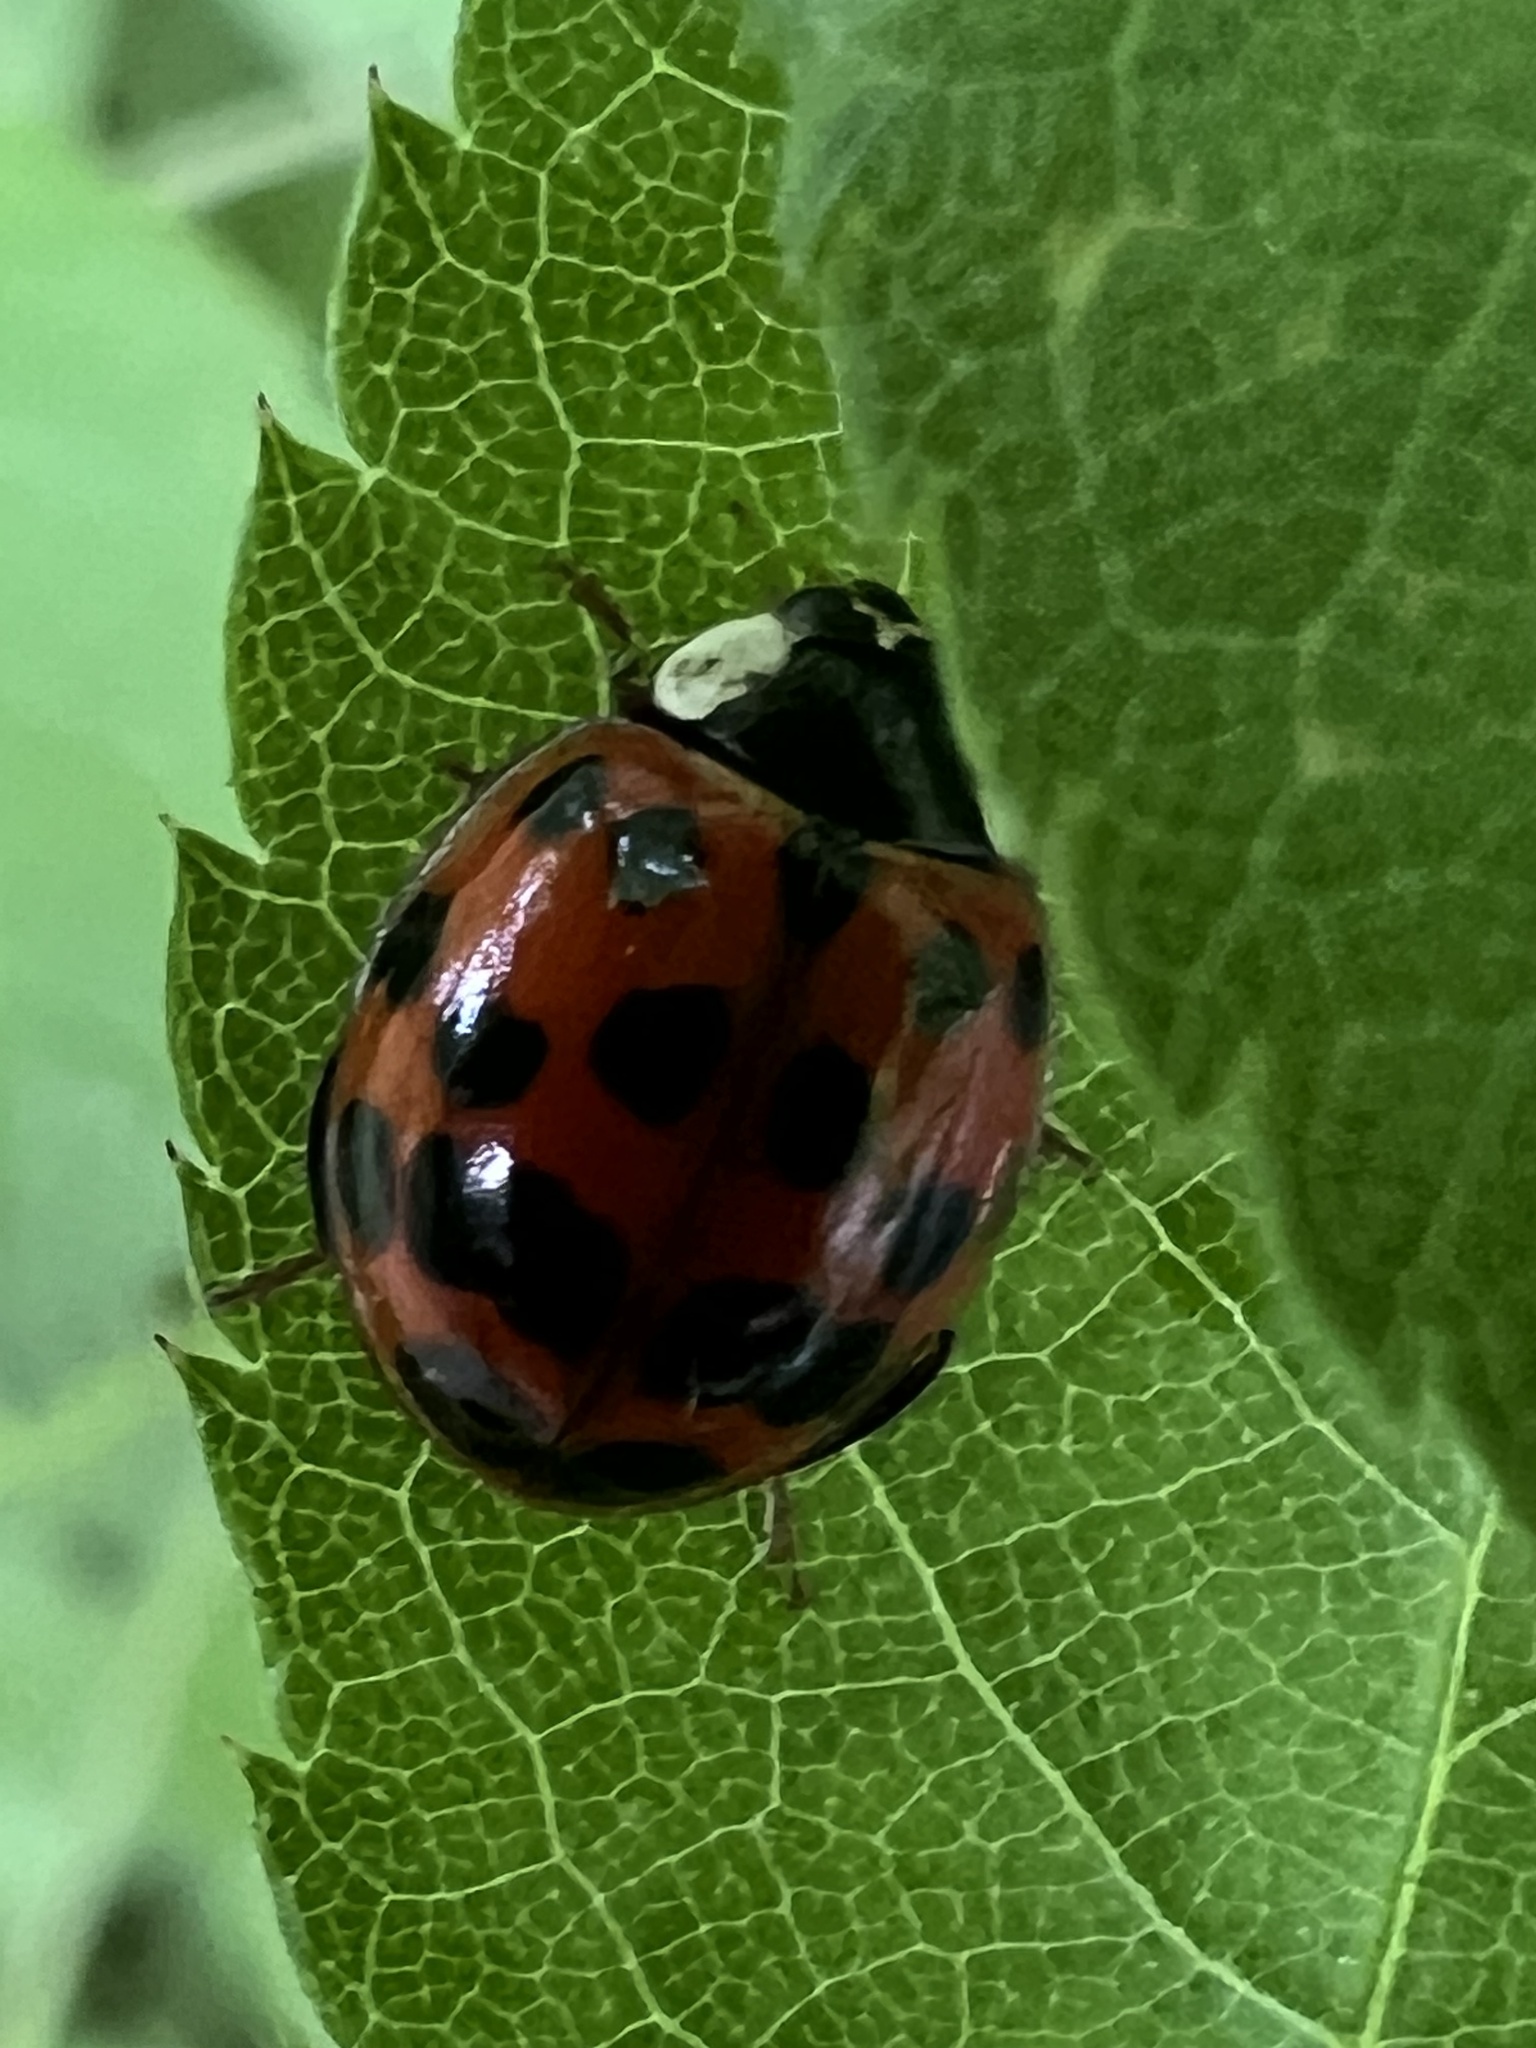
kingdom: Animalia
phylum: Arthropoda
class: Insecta
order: Coleoptera
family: Coccinellidae
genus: Harmonia
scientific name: Harmonia axyridis
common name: Harlequin ladybird
